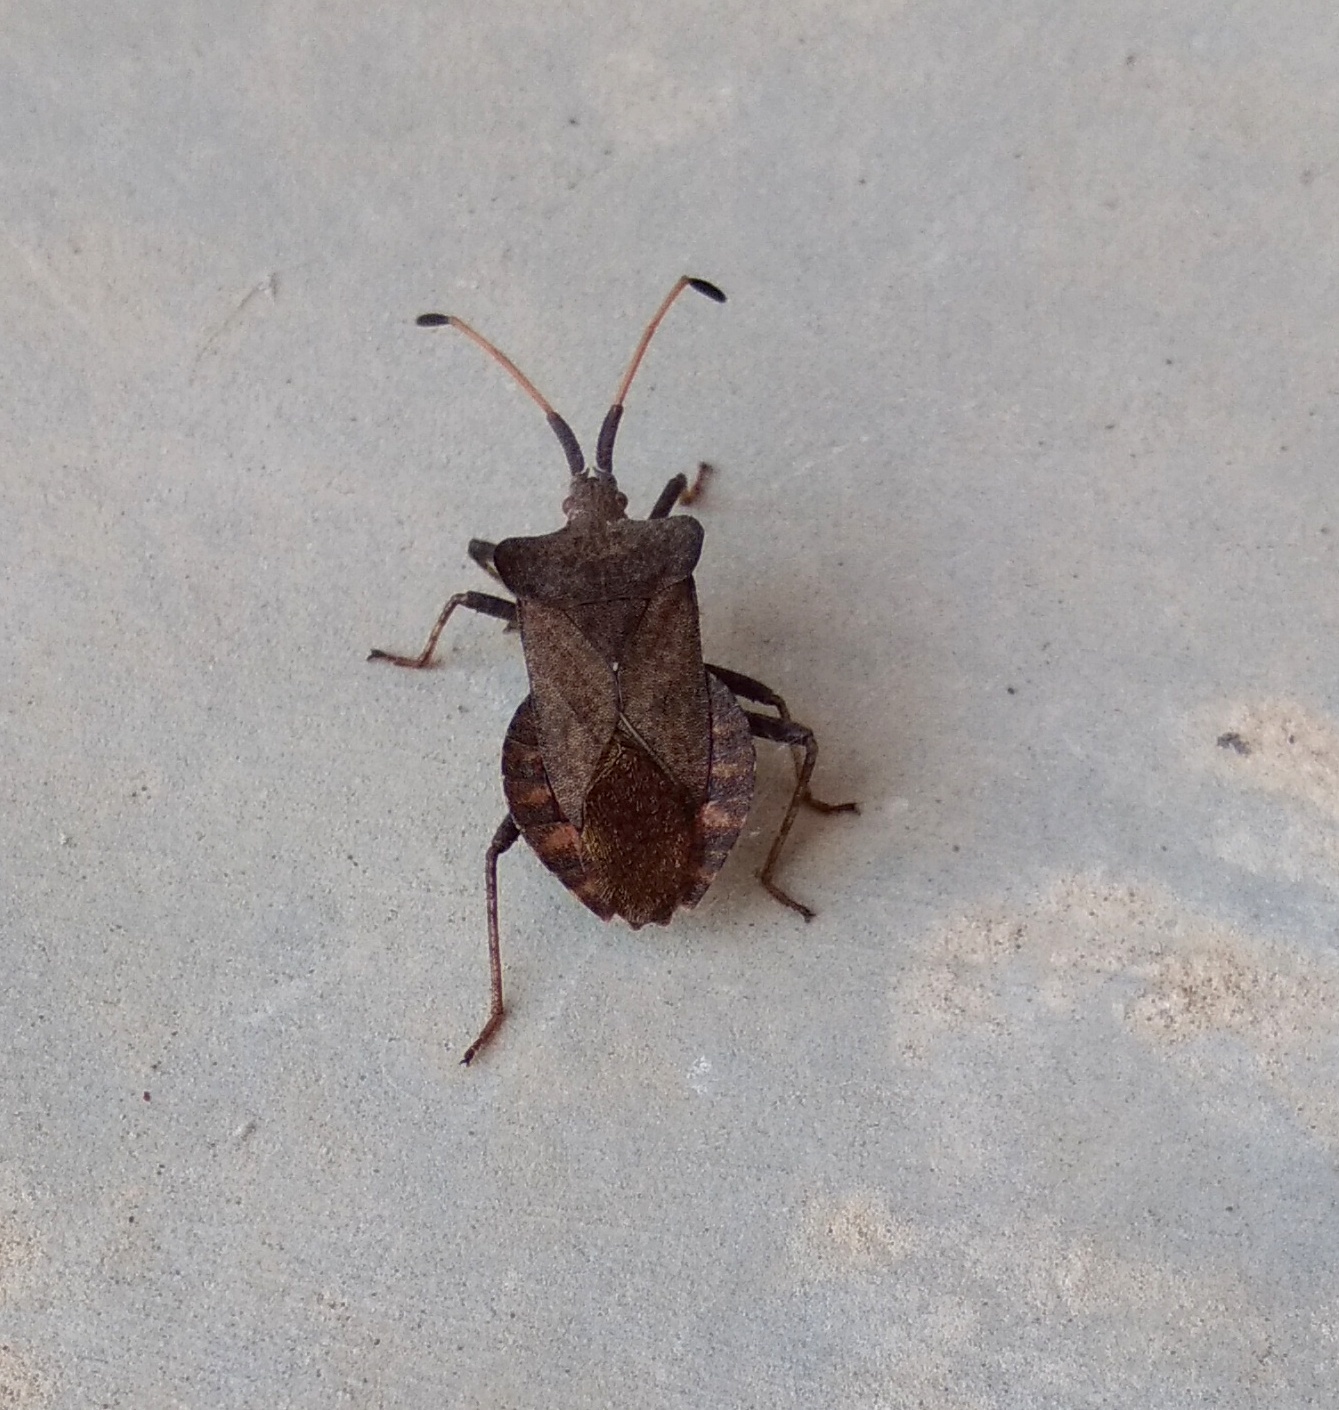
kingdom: Animalia
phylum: Arthropoda
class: Insecta
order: Hemiptera
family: Coreidae
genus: Coreus
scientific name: Coreus marginatus
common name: Dock bug
